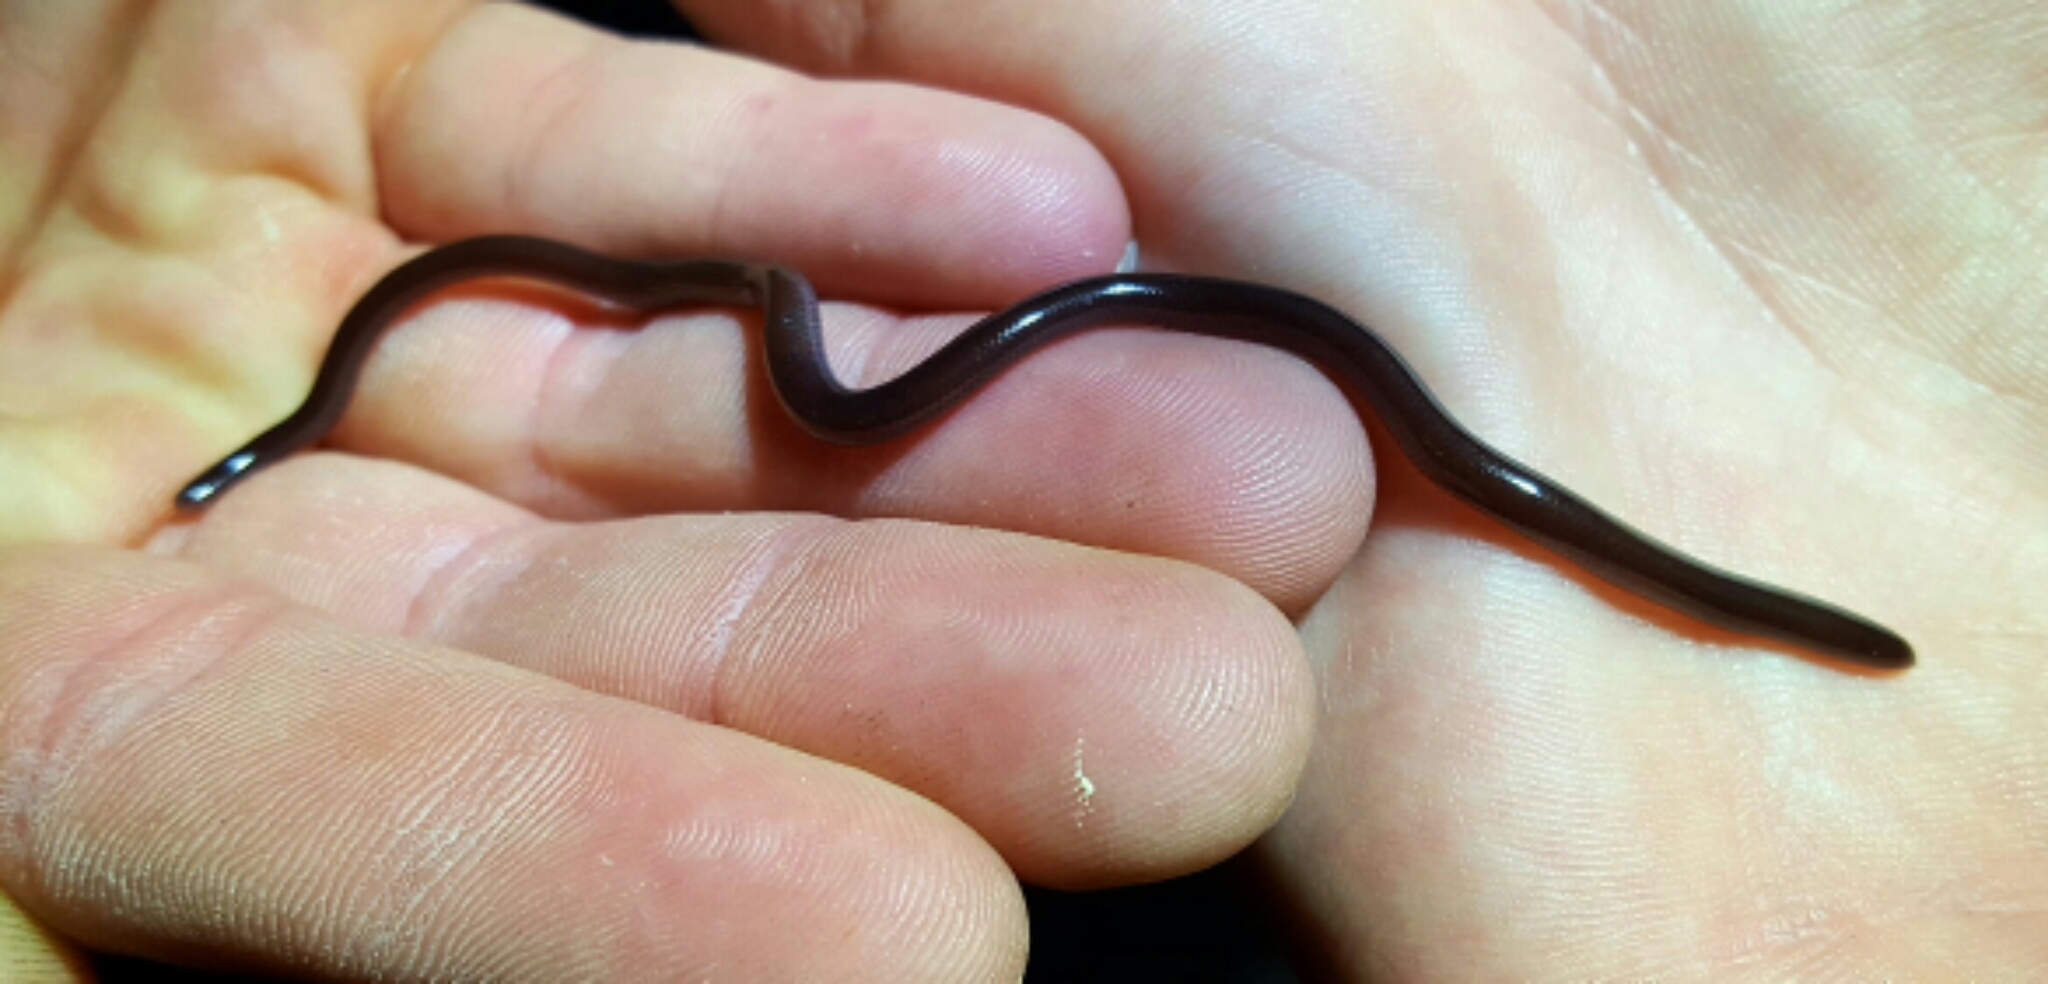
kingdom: Animalia
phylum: Chordata
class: Squamata
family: Typhlopidae
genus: Indotyphlops
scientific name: Indotyphlops braminus
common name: Brahminy blindsnake
